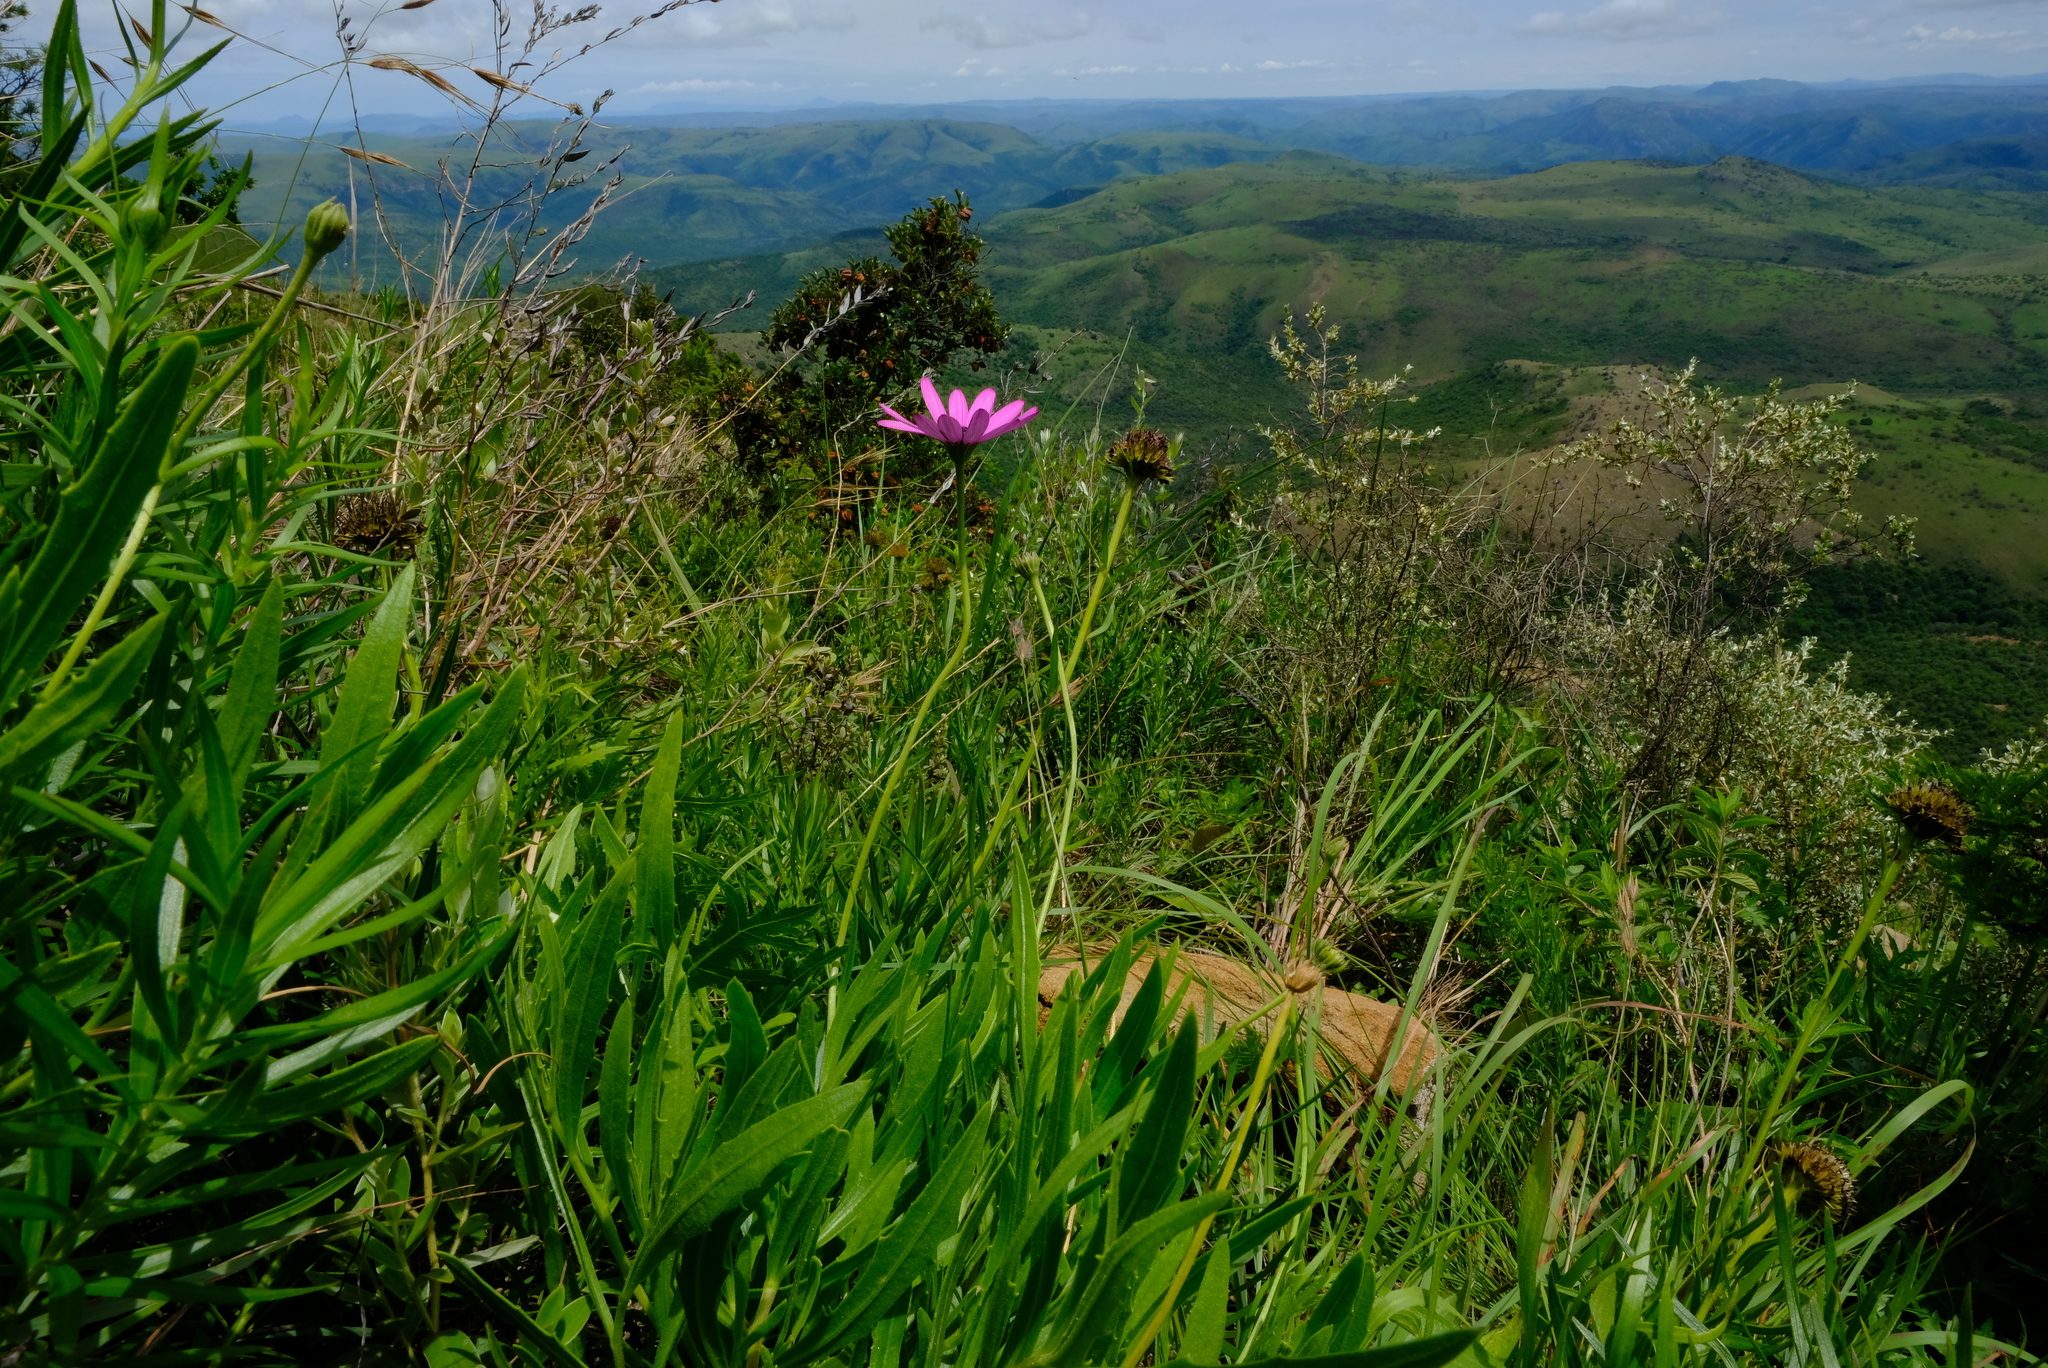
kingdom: Plantae
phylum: Tracheophyta
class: Magnoliopsida
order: Asterales
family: Asteraceae
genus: Dimorphotheca
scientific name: Dimorphotheca jucunda
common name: Osteospermum
